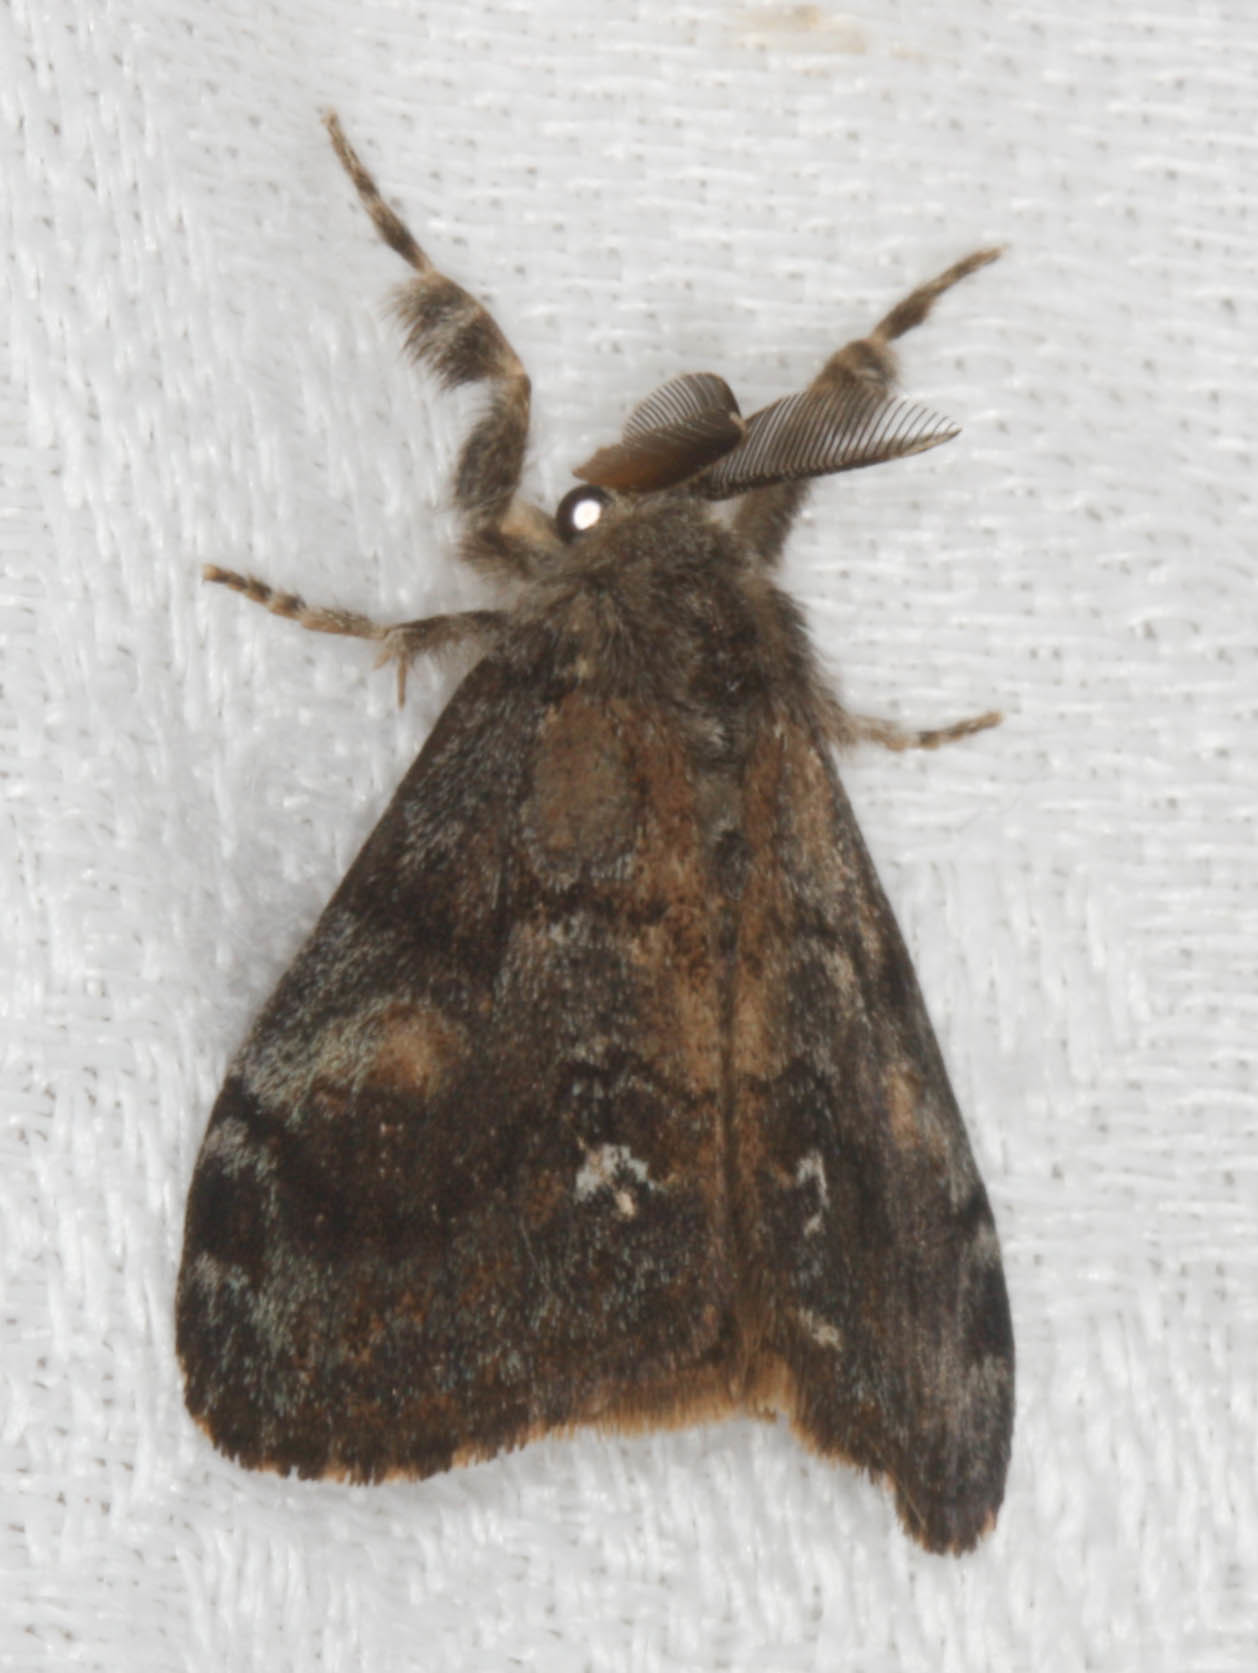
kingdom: Animalia
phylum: Arthropoda
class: Insecta
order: Lepidoptera
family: Erebidae
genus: Orgyia
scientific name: Orgyia vetusta
